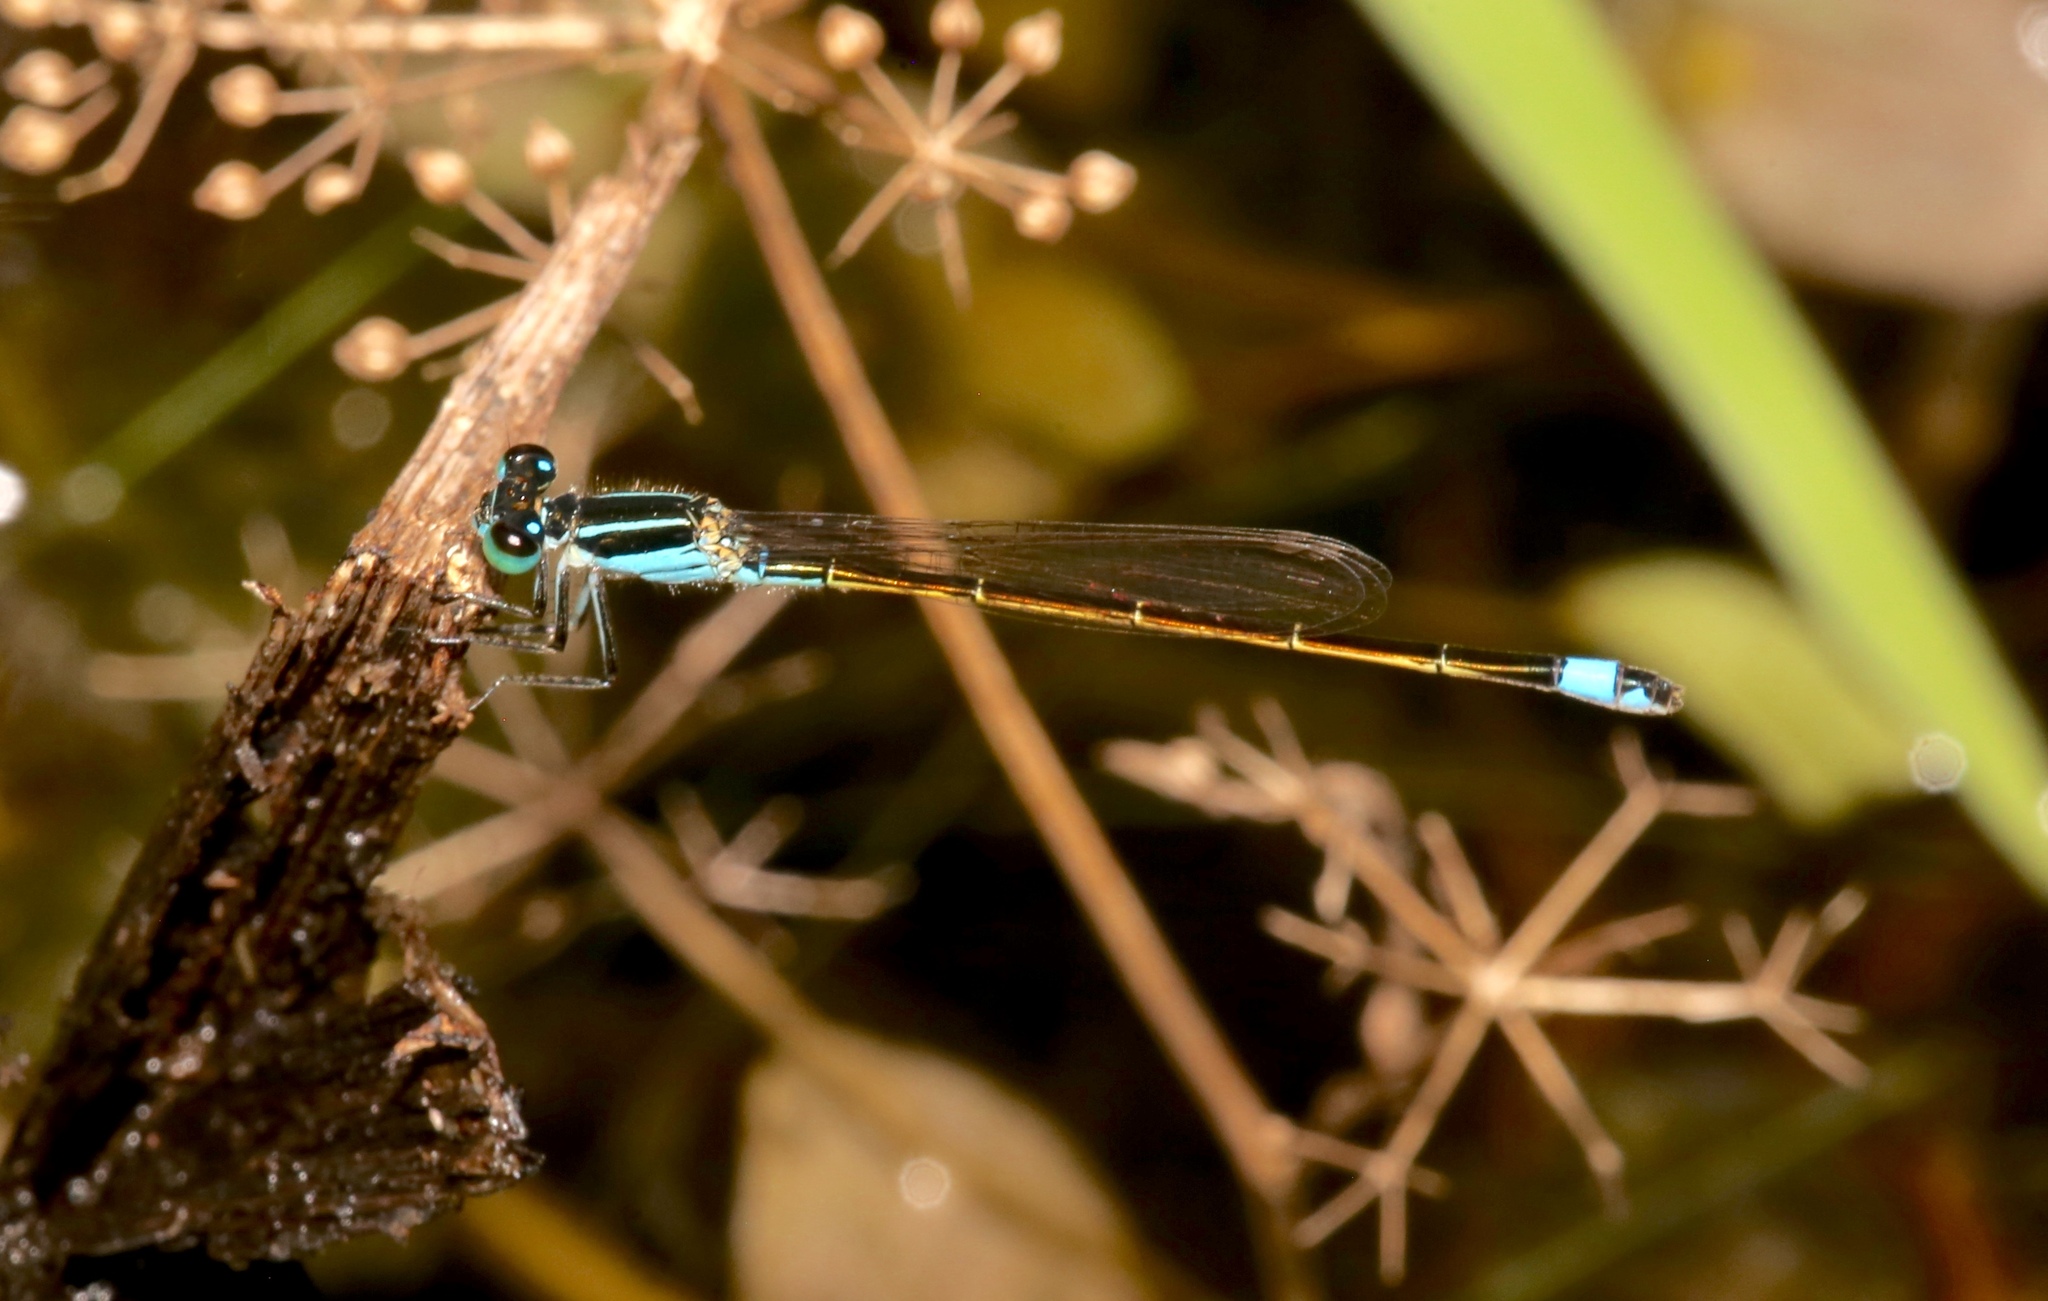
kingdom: Animalia
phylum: Arthropoda
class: Insecta
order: Odonata
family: Coenagrionidae
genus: Ischnura
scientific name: Ischnura ramburii
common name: Rambur's forktail
